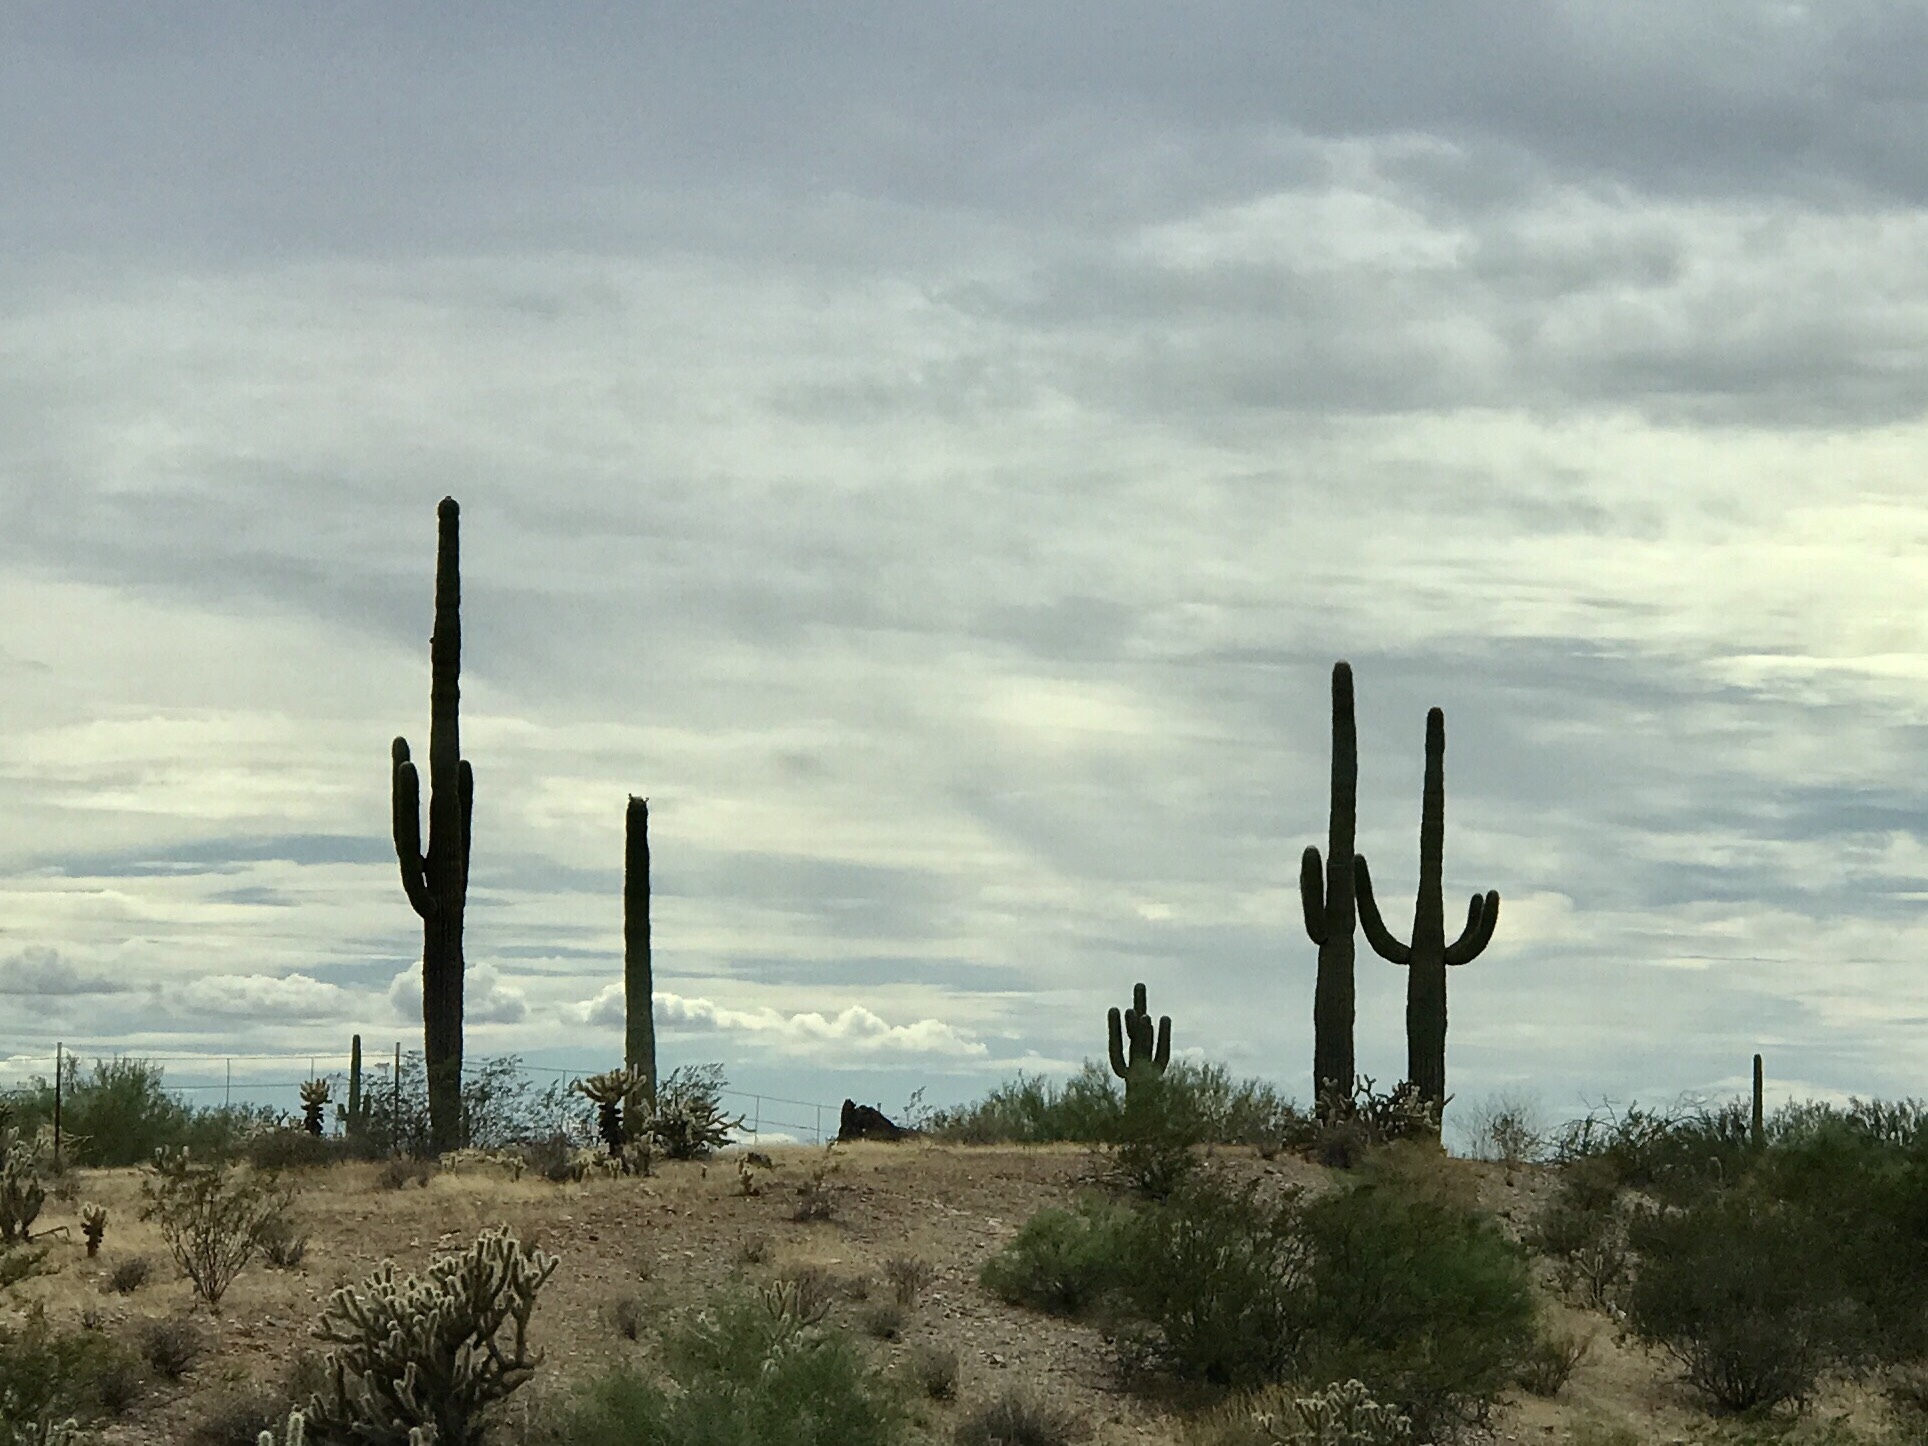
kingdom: Plantae
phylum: Tracheophyta
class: Magnoliopsida
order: Caryophyllales
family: Cactaceae
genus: Carnegiea
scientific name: Carnegiea gigantea
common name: Saguaro
